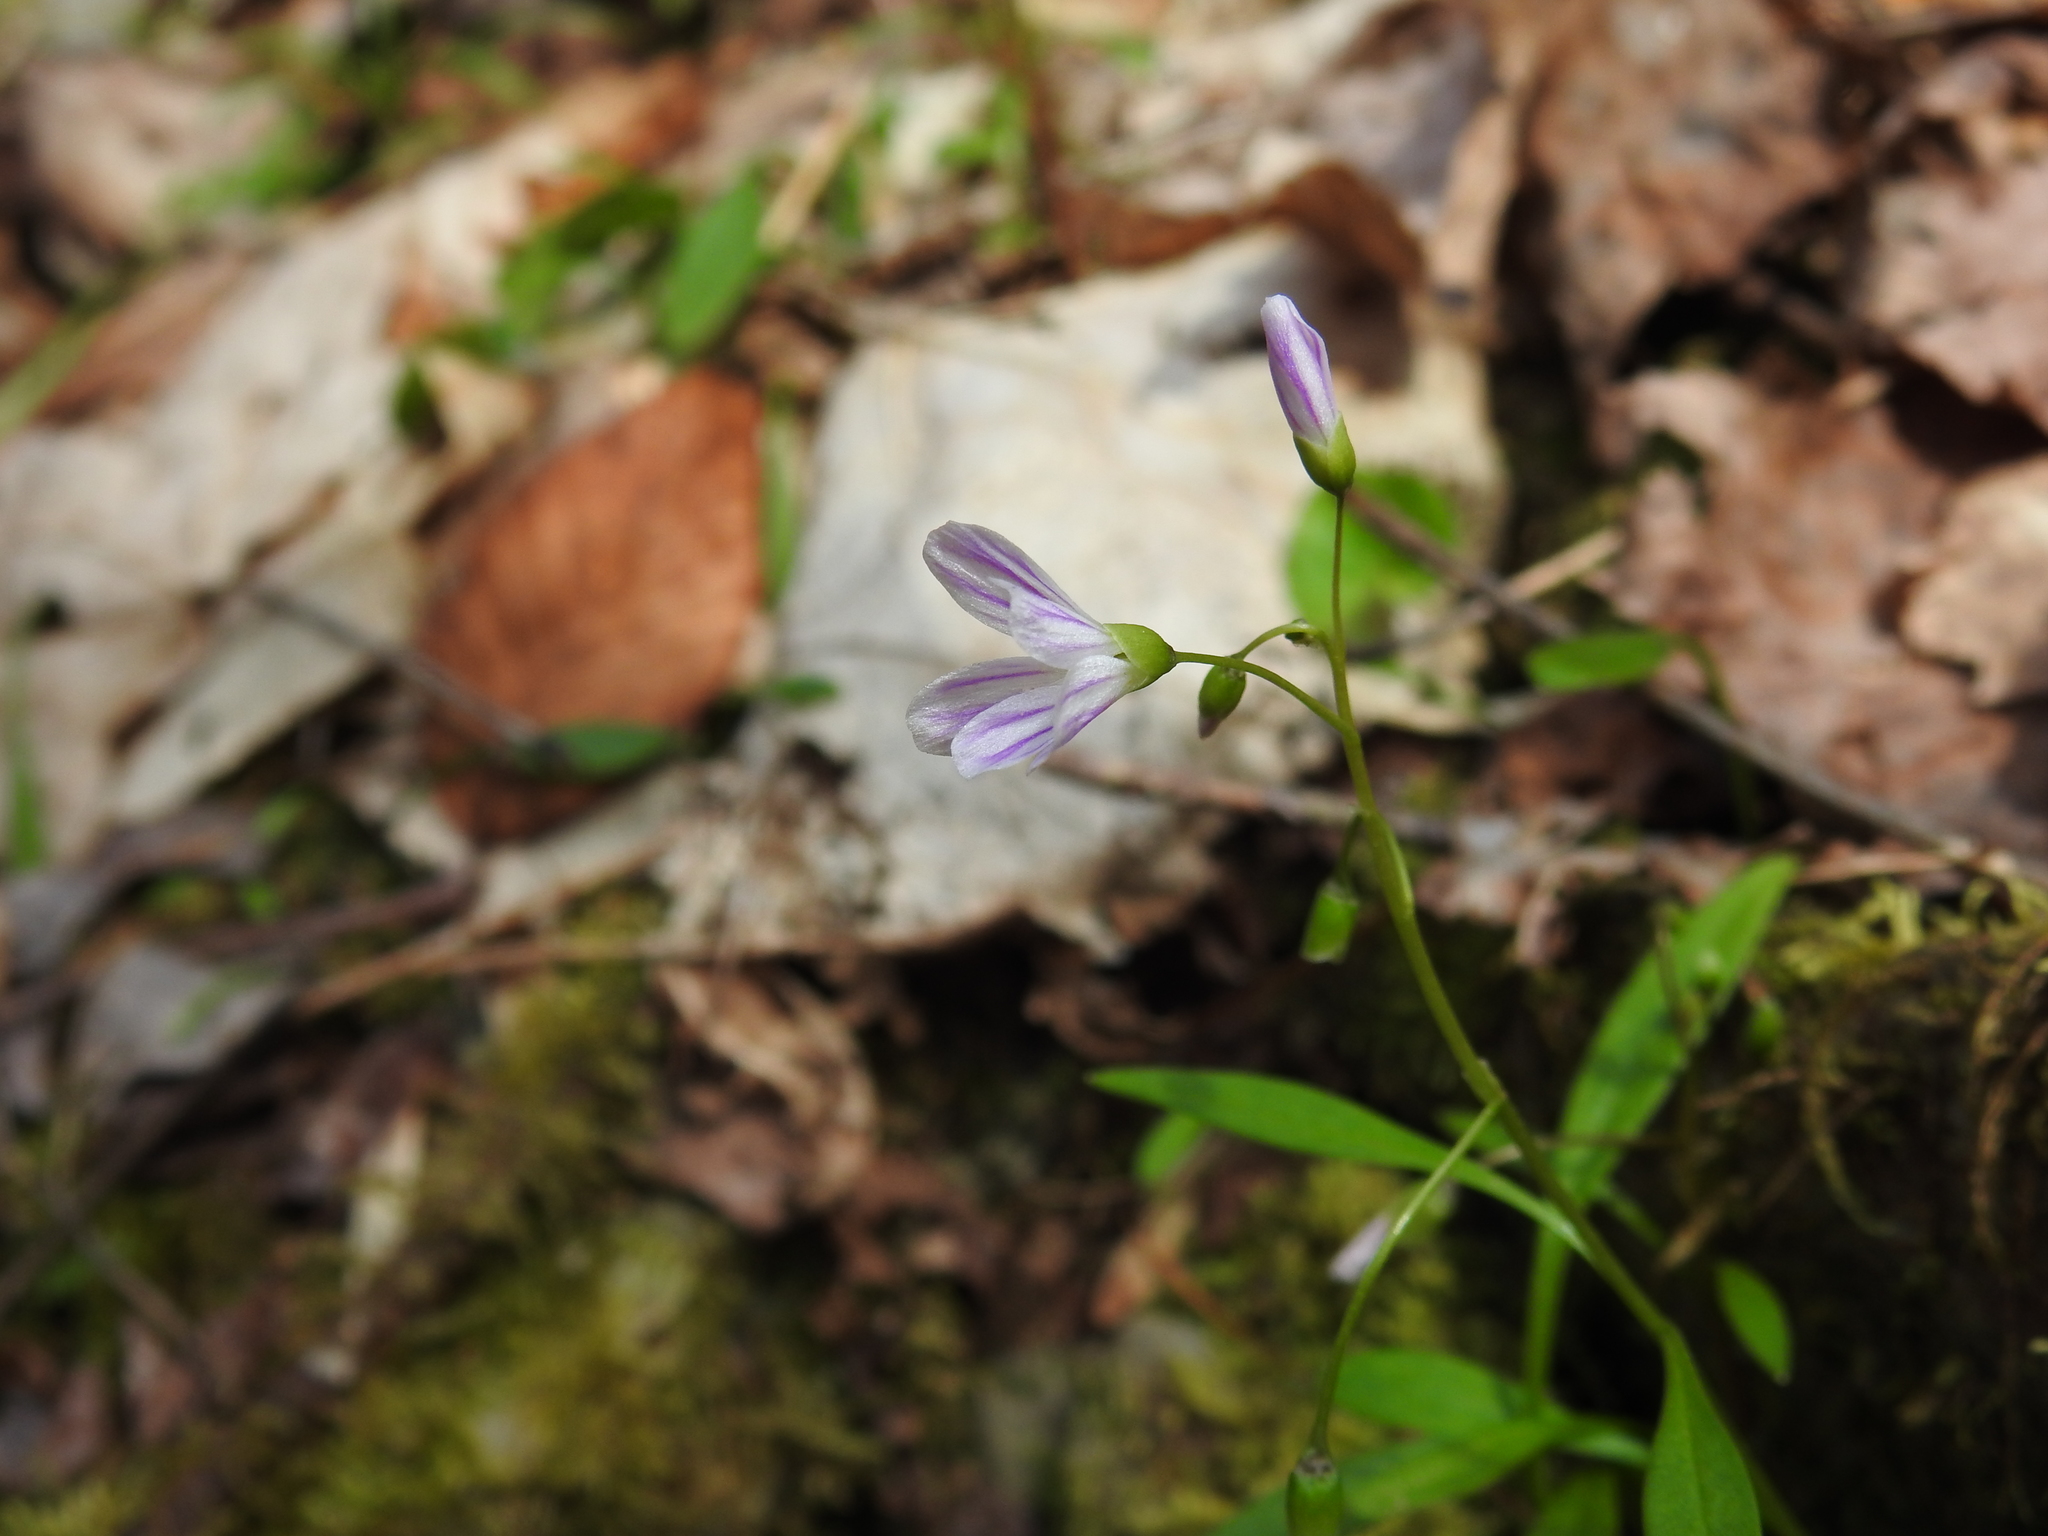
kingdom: Plantae
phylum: Tracheophyta
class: Magnoliopsida
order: Caryophyllales
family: Montiaceae
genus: Claytonia
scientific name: Claytonia caroliniana
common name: Carolina spring beauty
